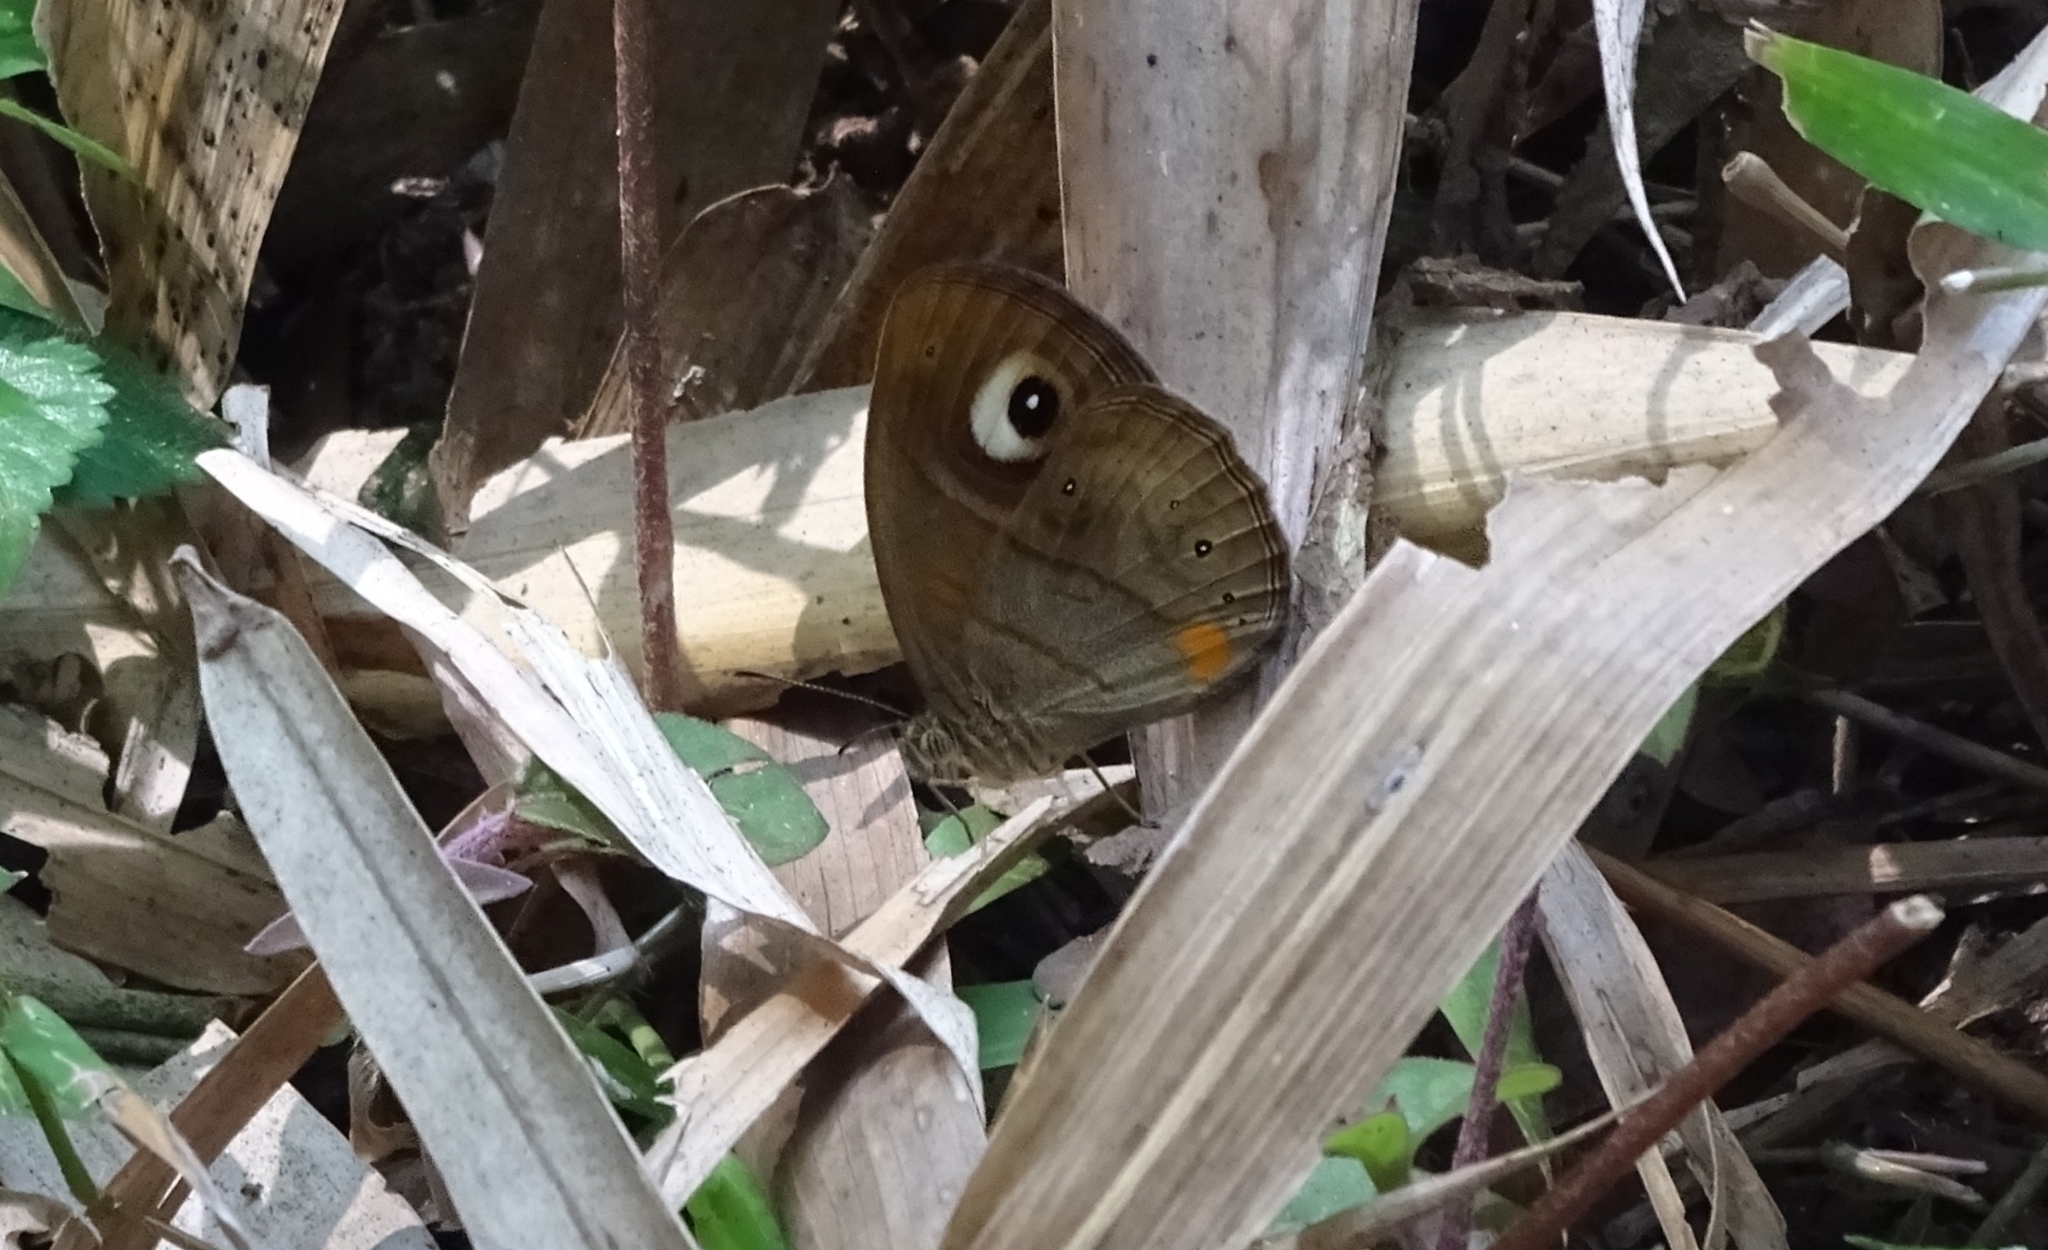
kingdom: Animalia
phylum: Arthropoda
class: Insecta
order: Lepidoptera
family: Nymphalidae
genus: Mycalesis
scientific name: Mycalesis patnia
